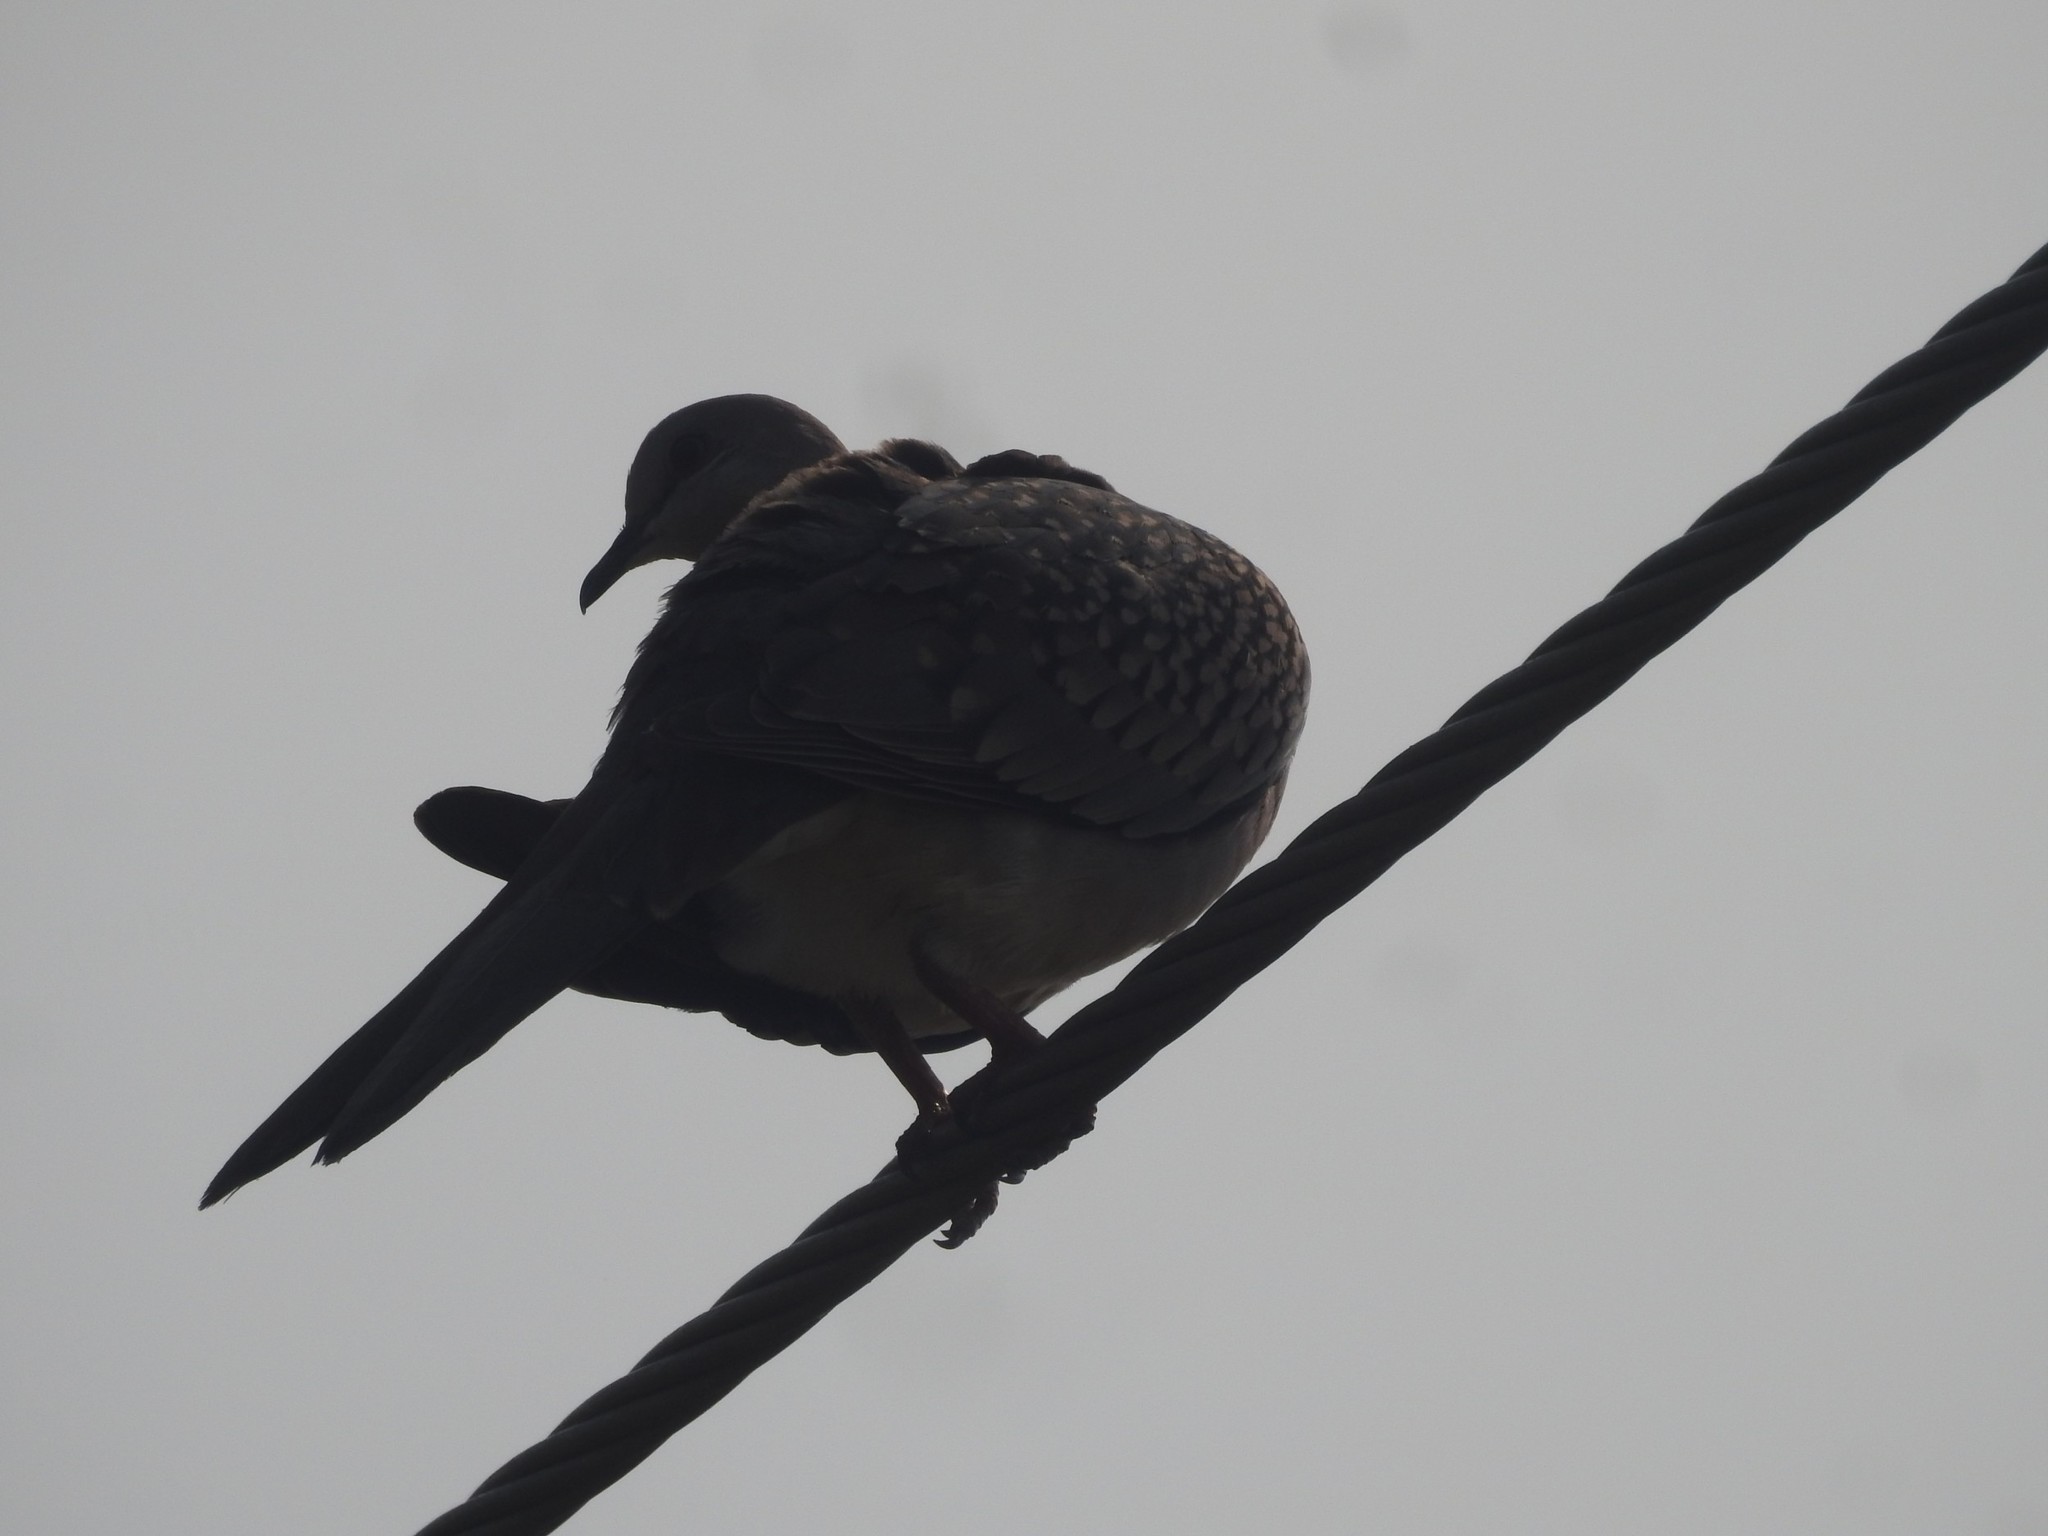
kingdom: Animalia
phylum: Chordata
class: Aves
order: Columbiformes
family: Columbidae
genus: Spilopelia
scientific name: Spilopelia chinensis
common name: Spotted dove
